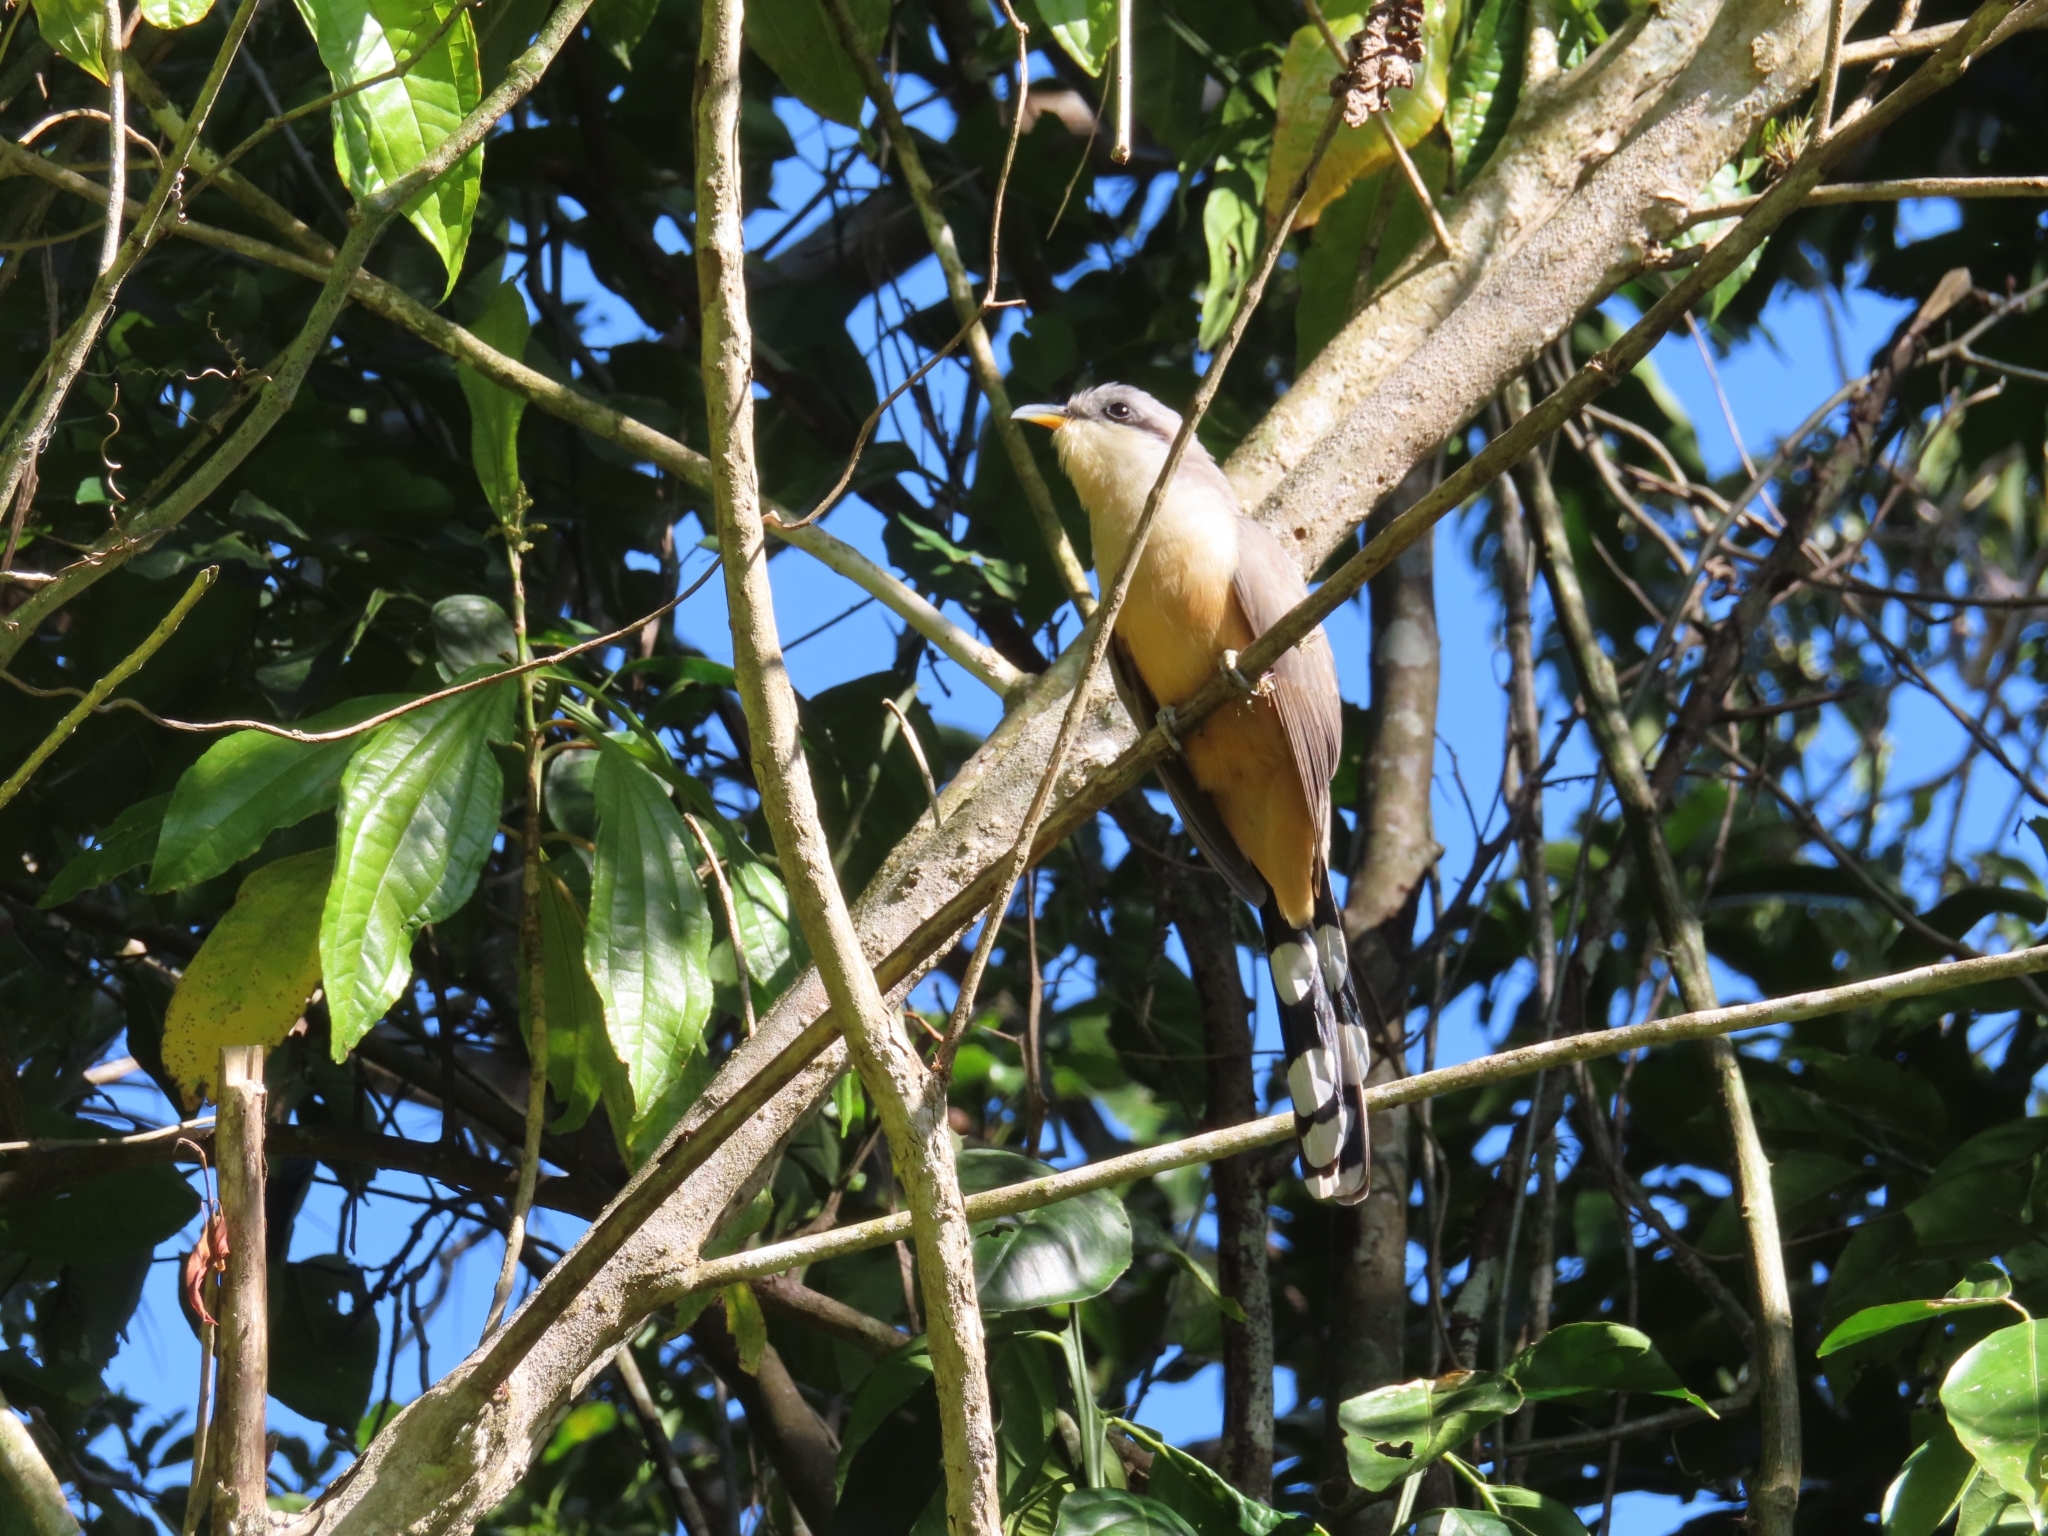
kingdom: Animalia
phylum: Chordata
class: Aves
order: Cuculiformes
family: Cuculidae
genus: Coccyzus
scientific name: Coccyzus minor
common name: Mangrove cuckoo
